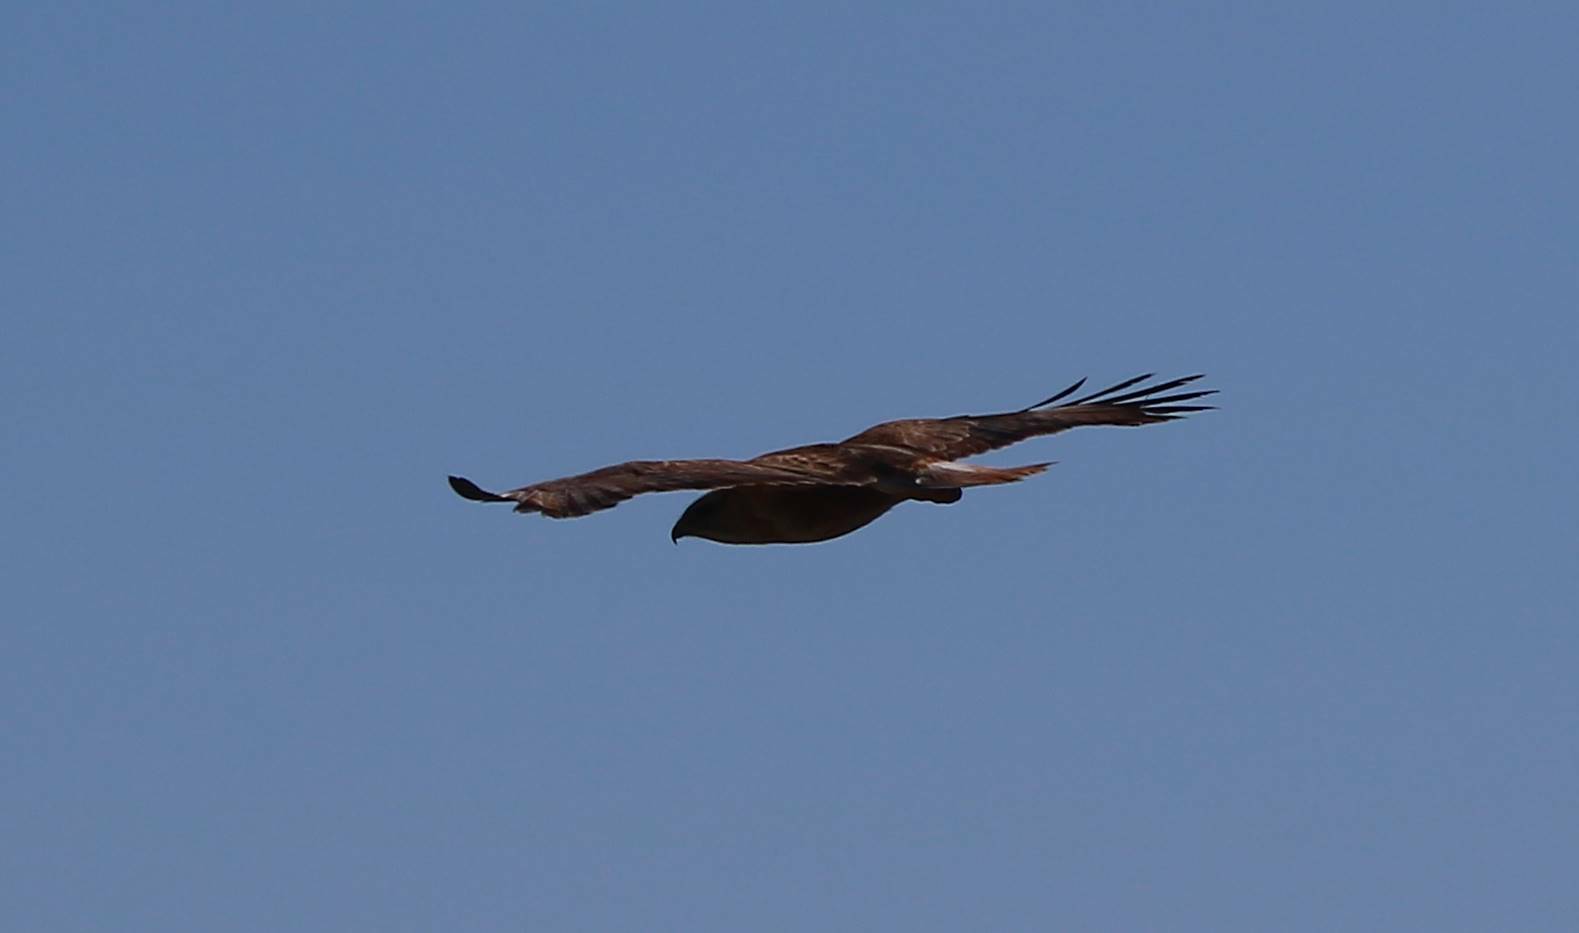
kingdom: Animalia
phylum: Chordata
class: Aves
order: Accipitriformes
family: Accipitridae
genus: Buteo
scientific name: Buteo rufinus
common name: Long-legged buzzard
